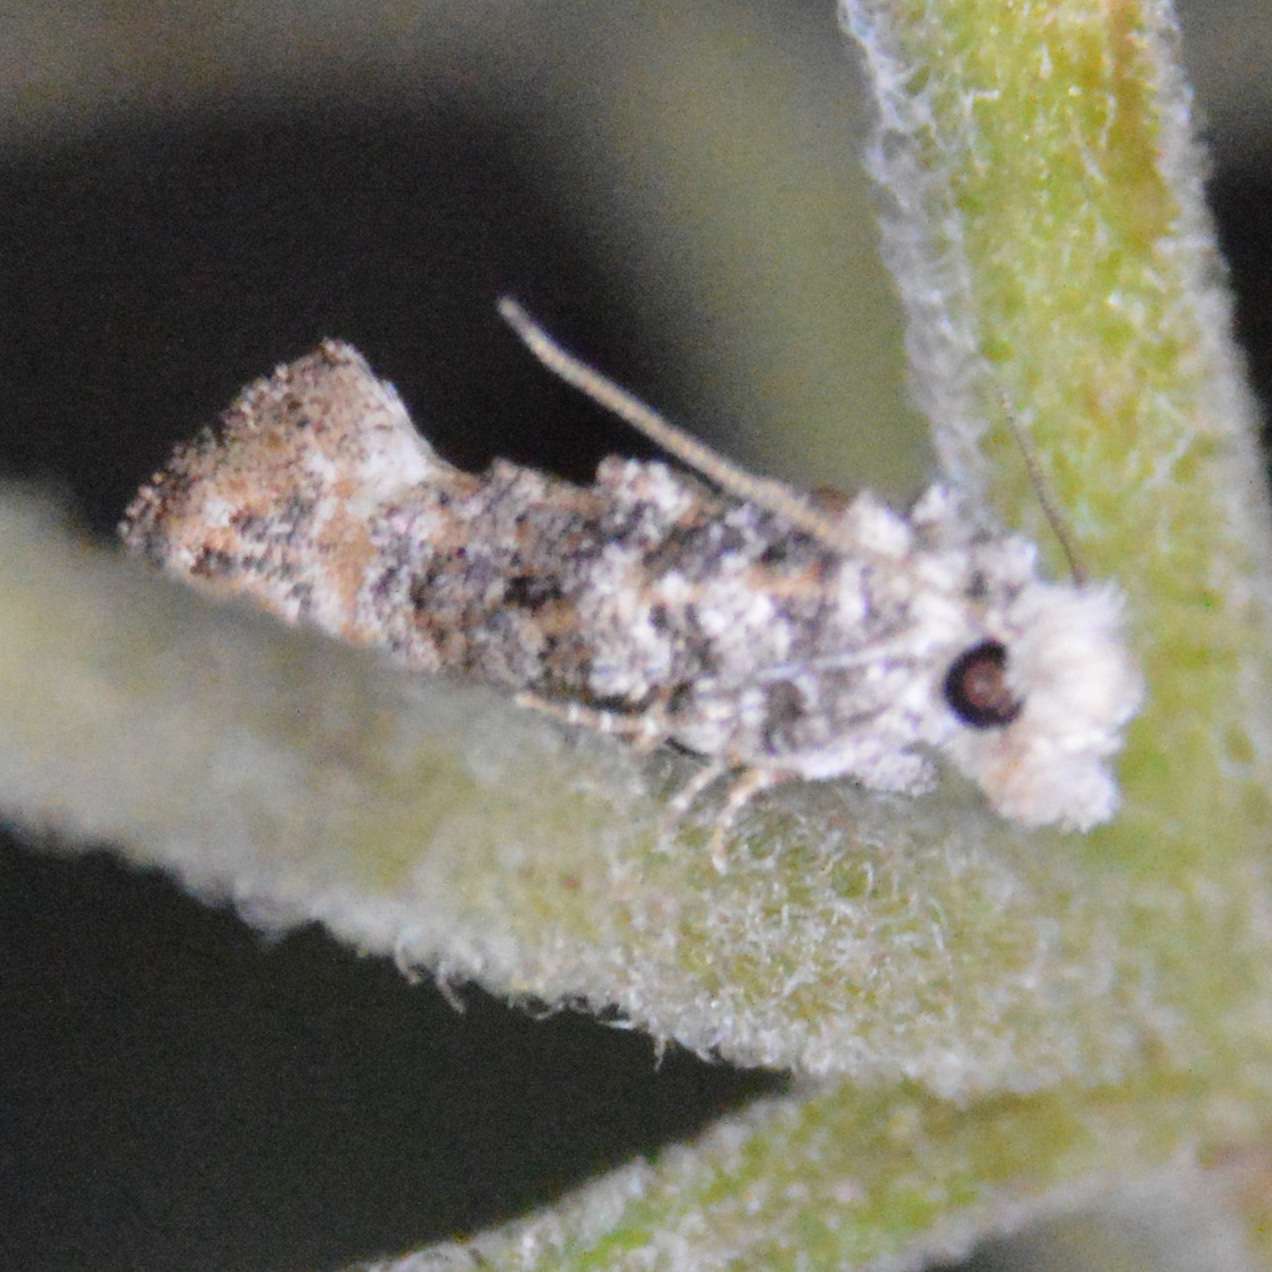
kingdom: Animalia
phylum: Arthropoda
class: Insecta
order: Lepidoptera
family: Tineidae
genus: Xylesthia
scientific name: Xylesthia pruniramiella
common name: Clemens' bark moth
